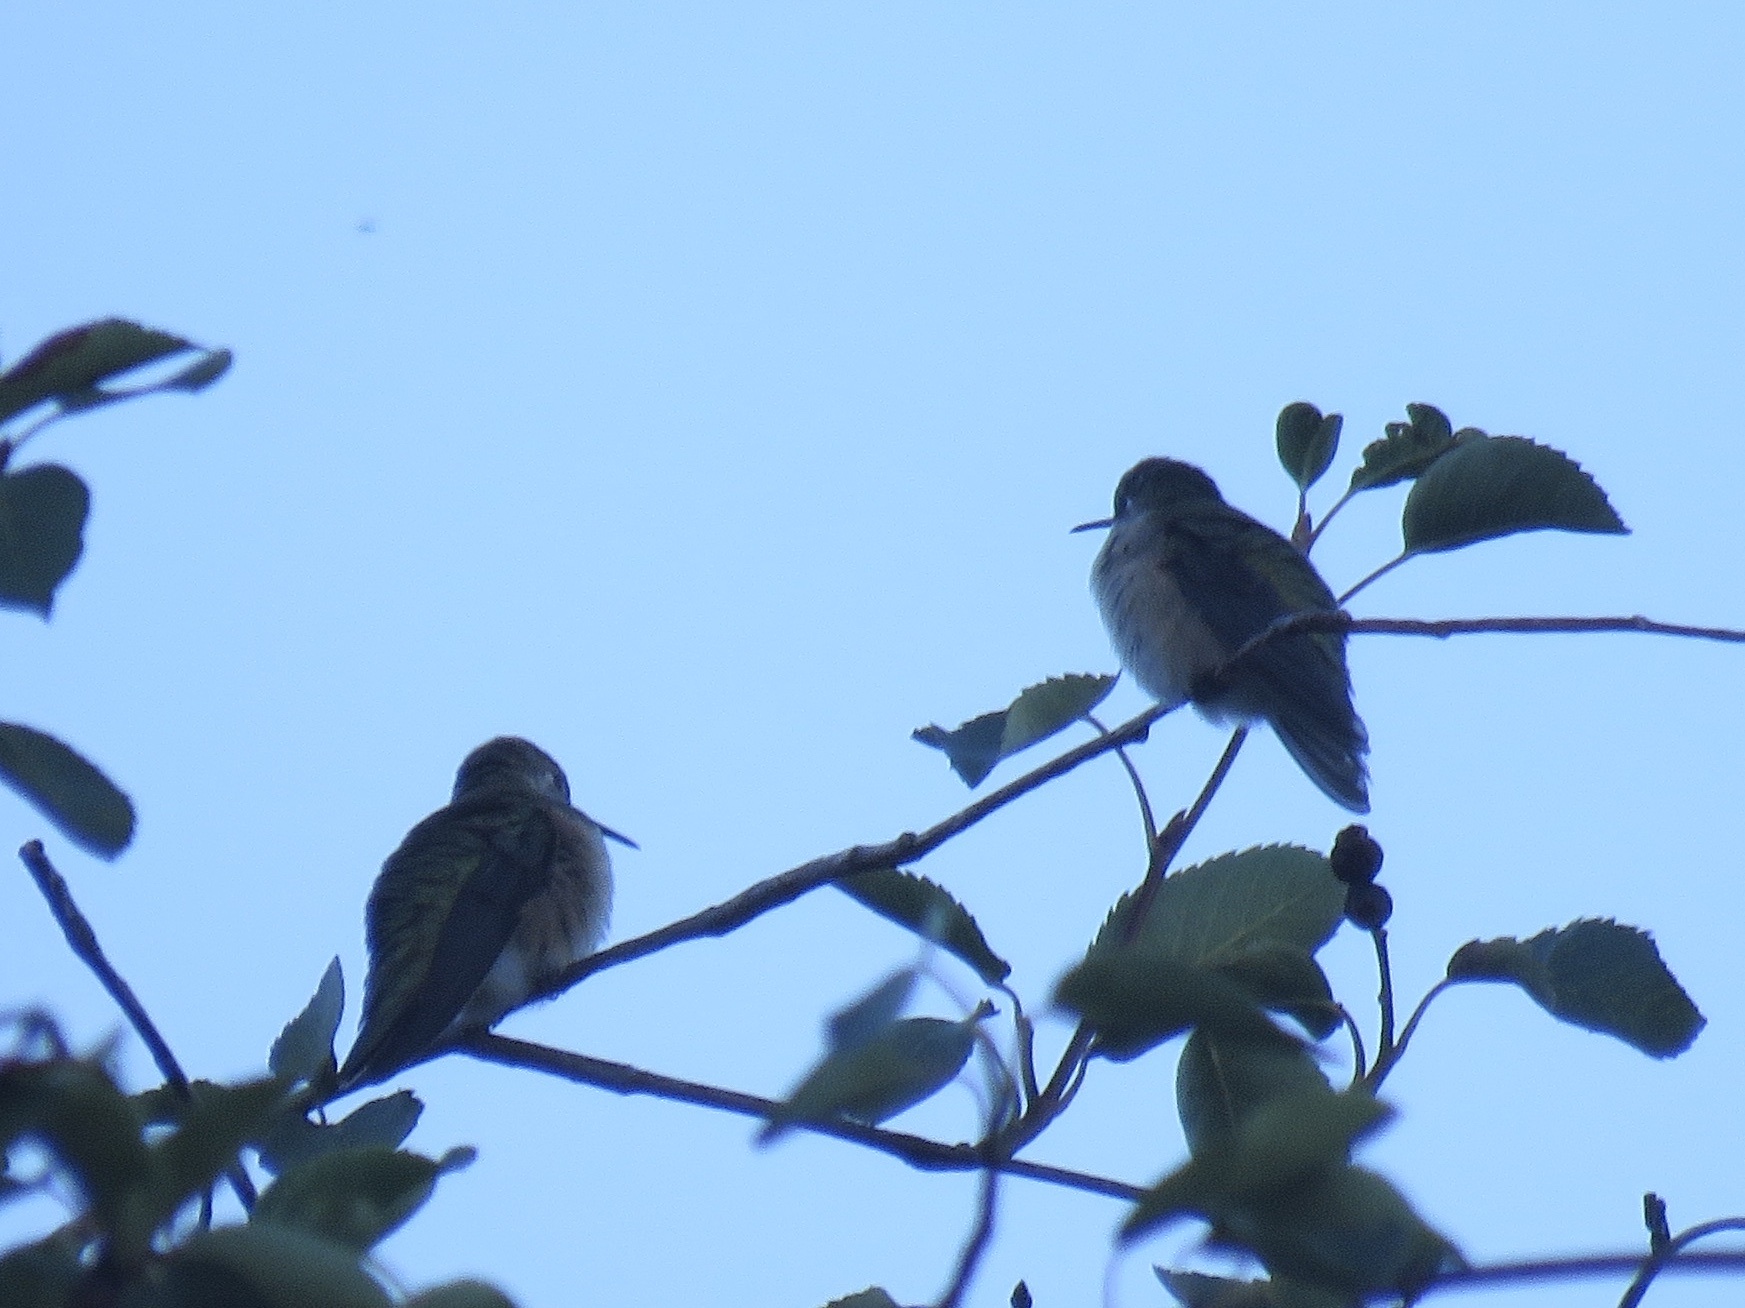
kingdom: Animalia
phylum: Chordata
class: Aves
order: Apodiformes
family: Trochilidae
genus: Selasphorus
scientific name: Selasphorus calliope
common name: Calliope hummingbird
